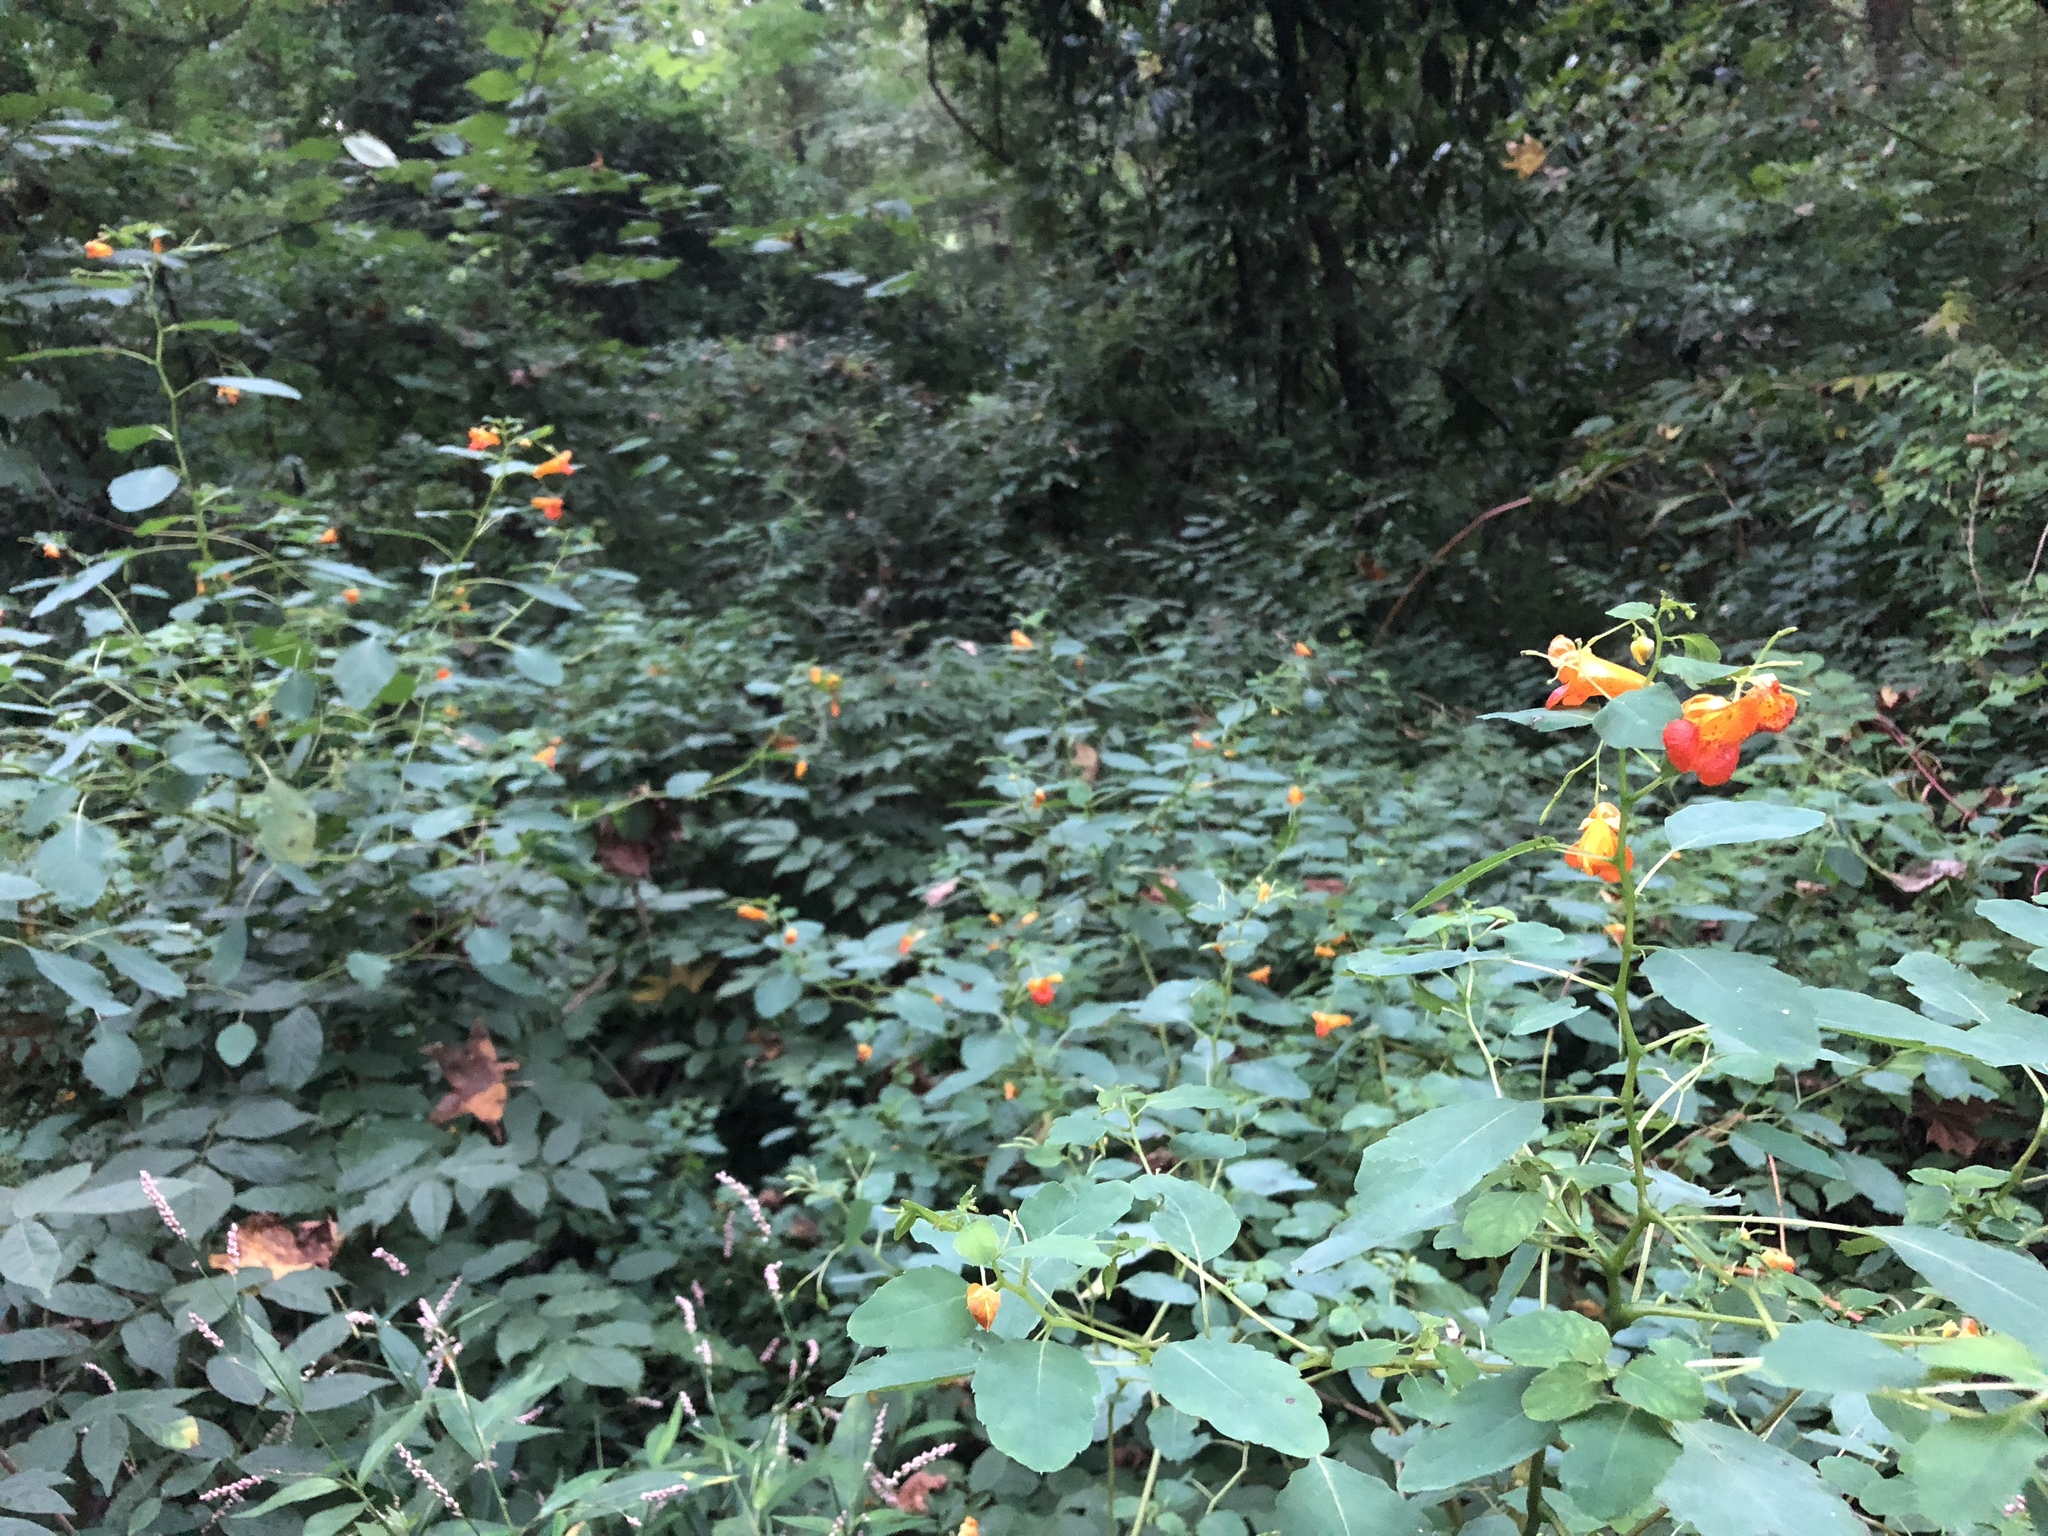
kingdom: Plantae
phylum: Tracheophyta
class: Magnoliopsida
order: Ericales
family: Balsaminaceae
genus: Impatiens
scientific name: Impatiens capensis
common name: Orange balsam
